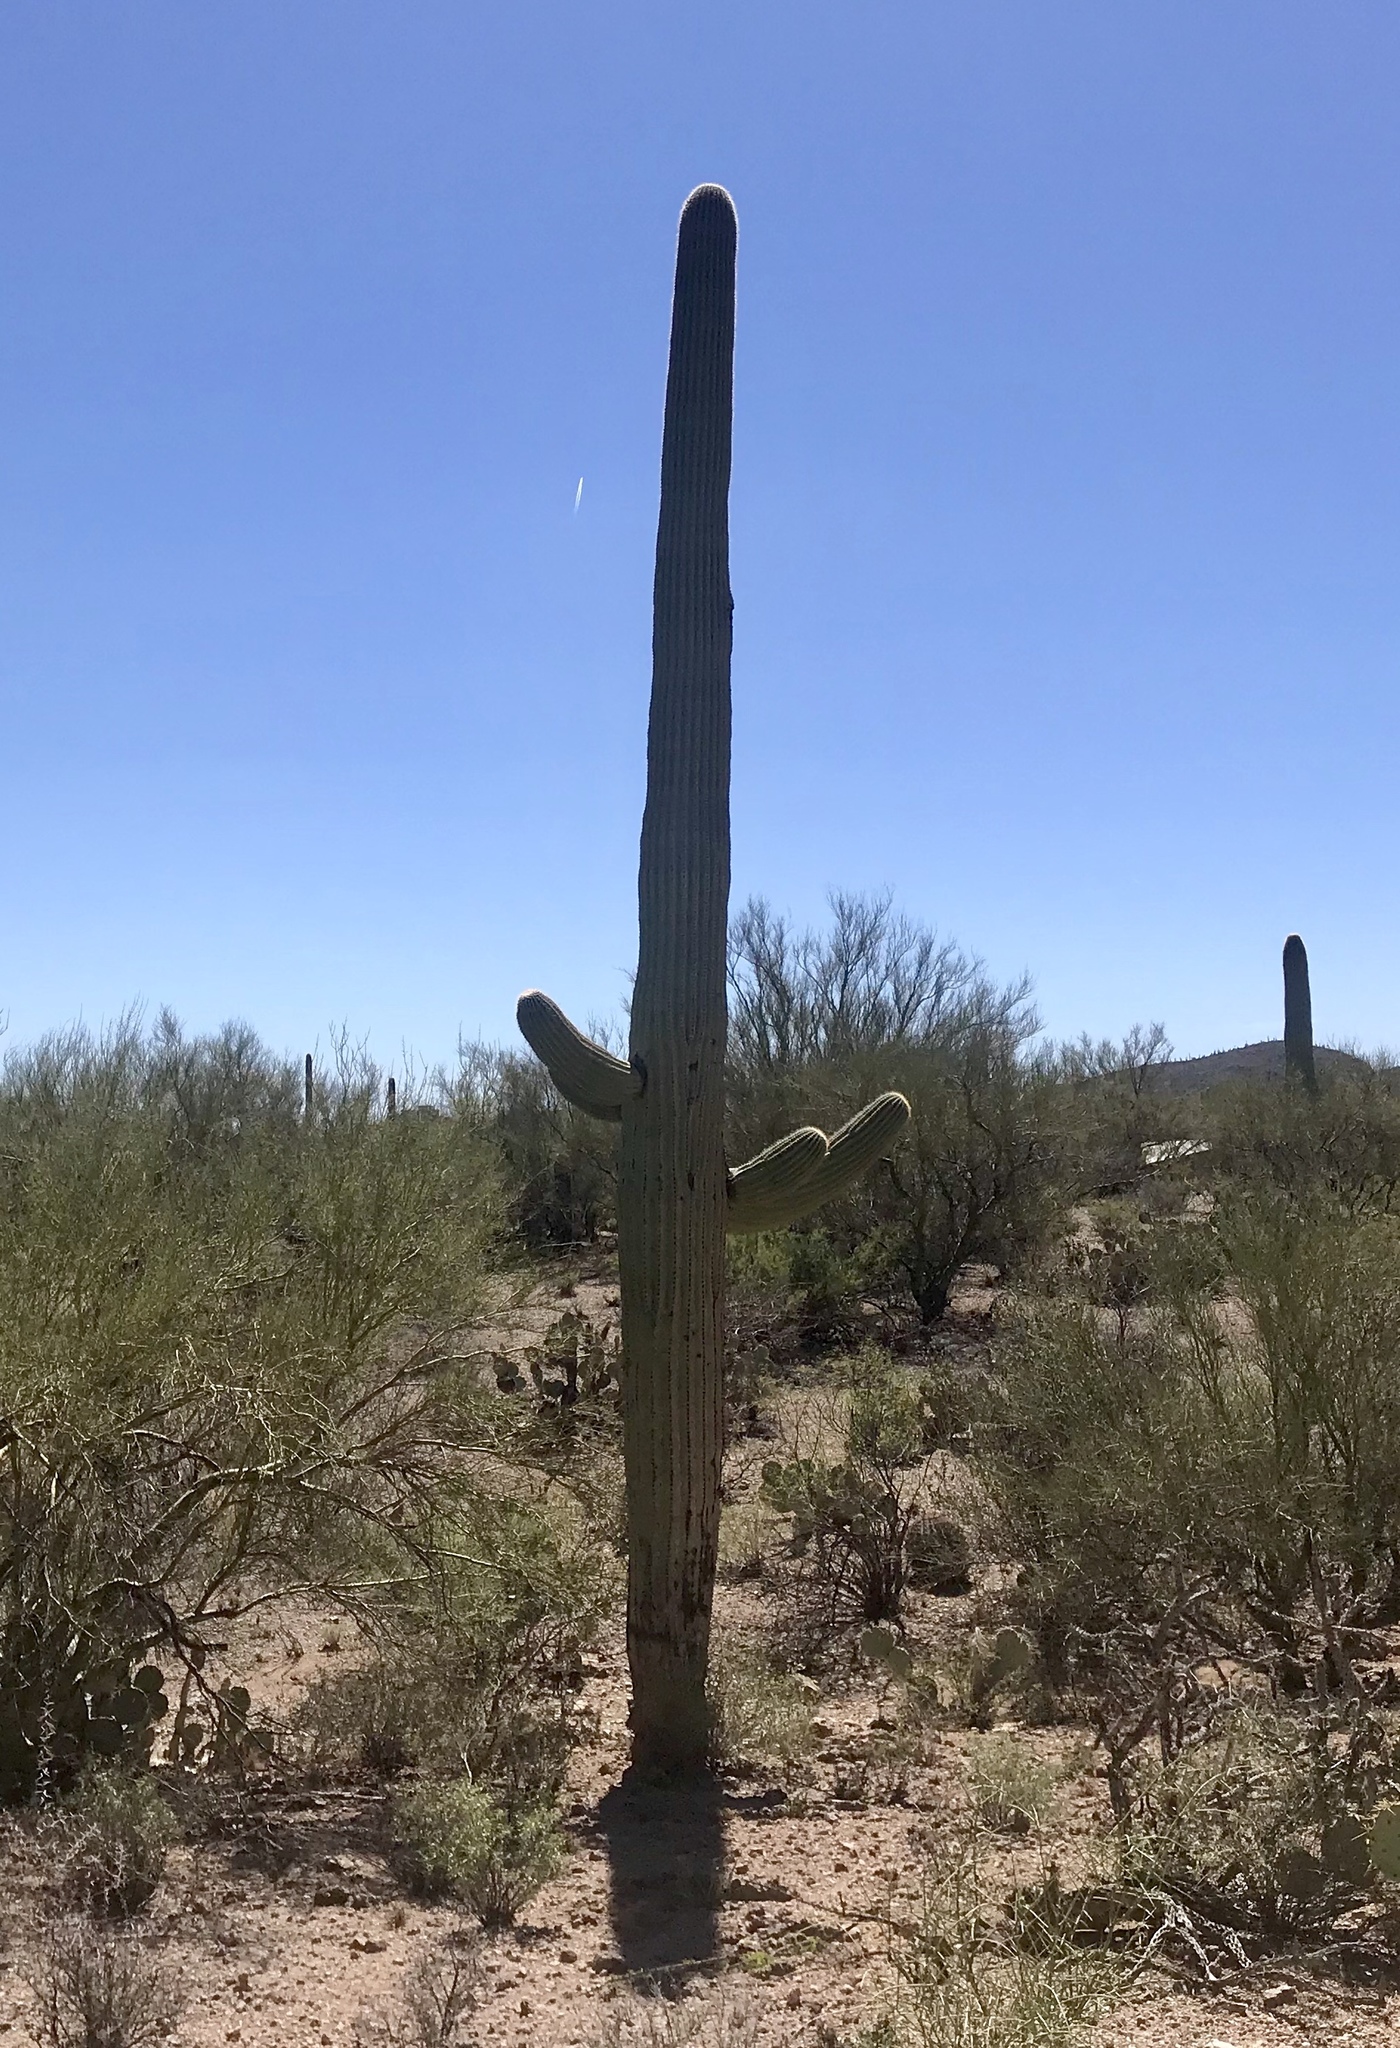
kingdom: Plantae
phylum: Tracheophyta
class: Magnoliopsida
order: Caryophyllales
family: Cactaceae
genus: Carnegiea
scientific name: Carnegiea gigantea
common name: Saguaro
